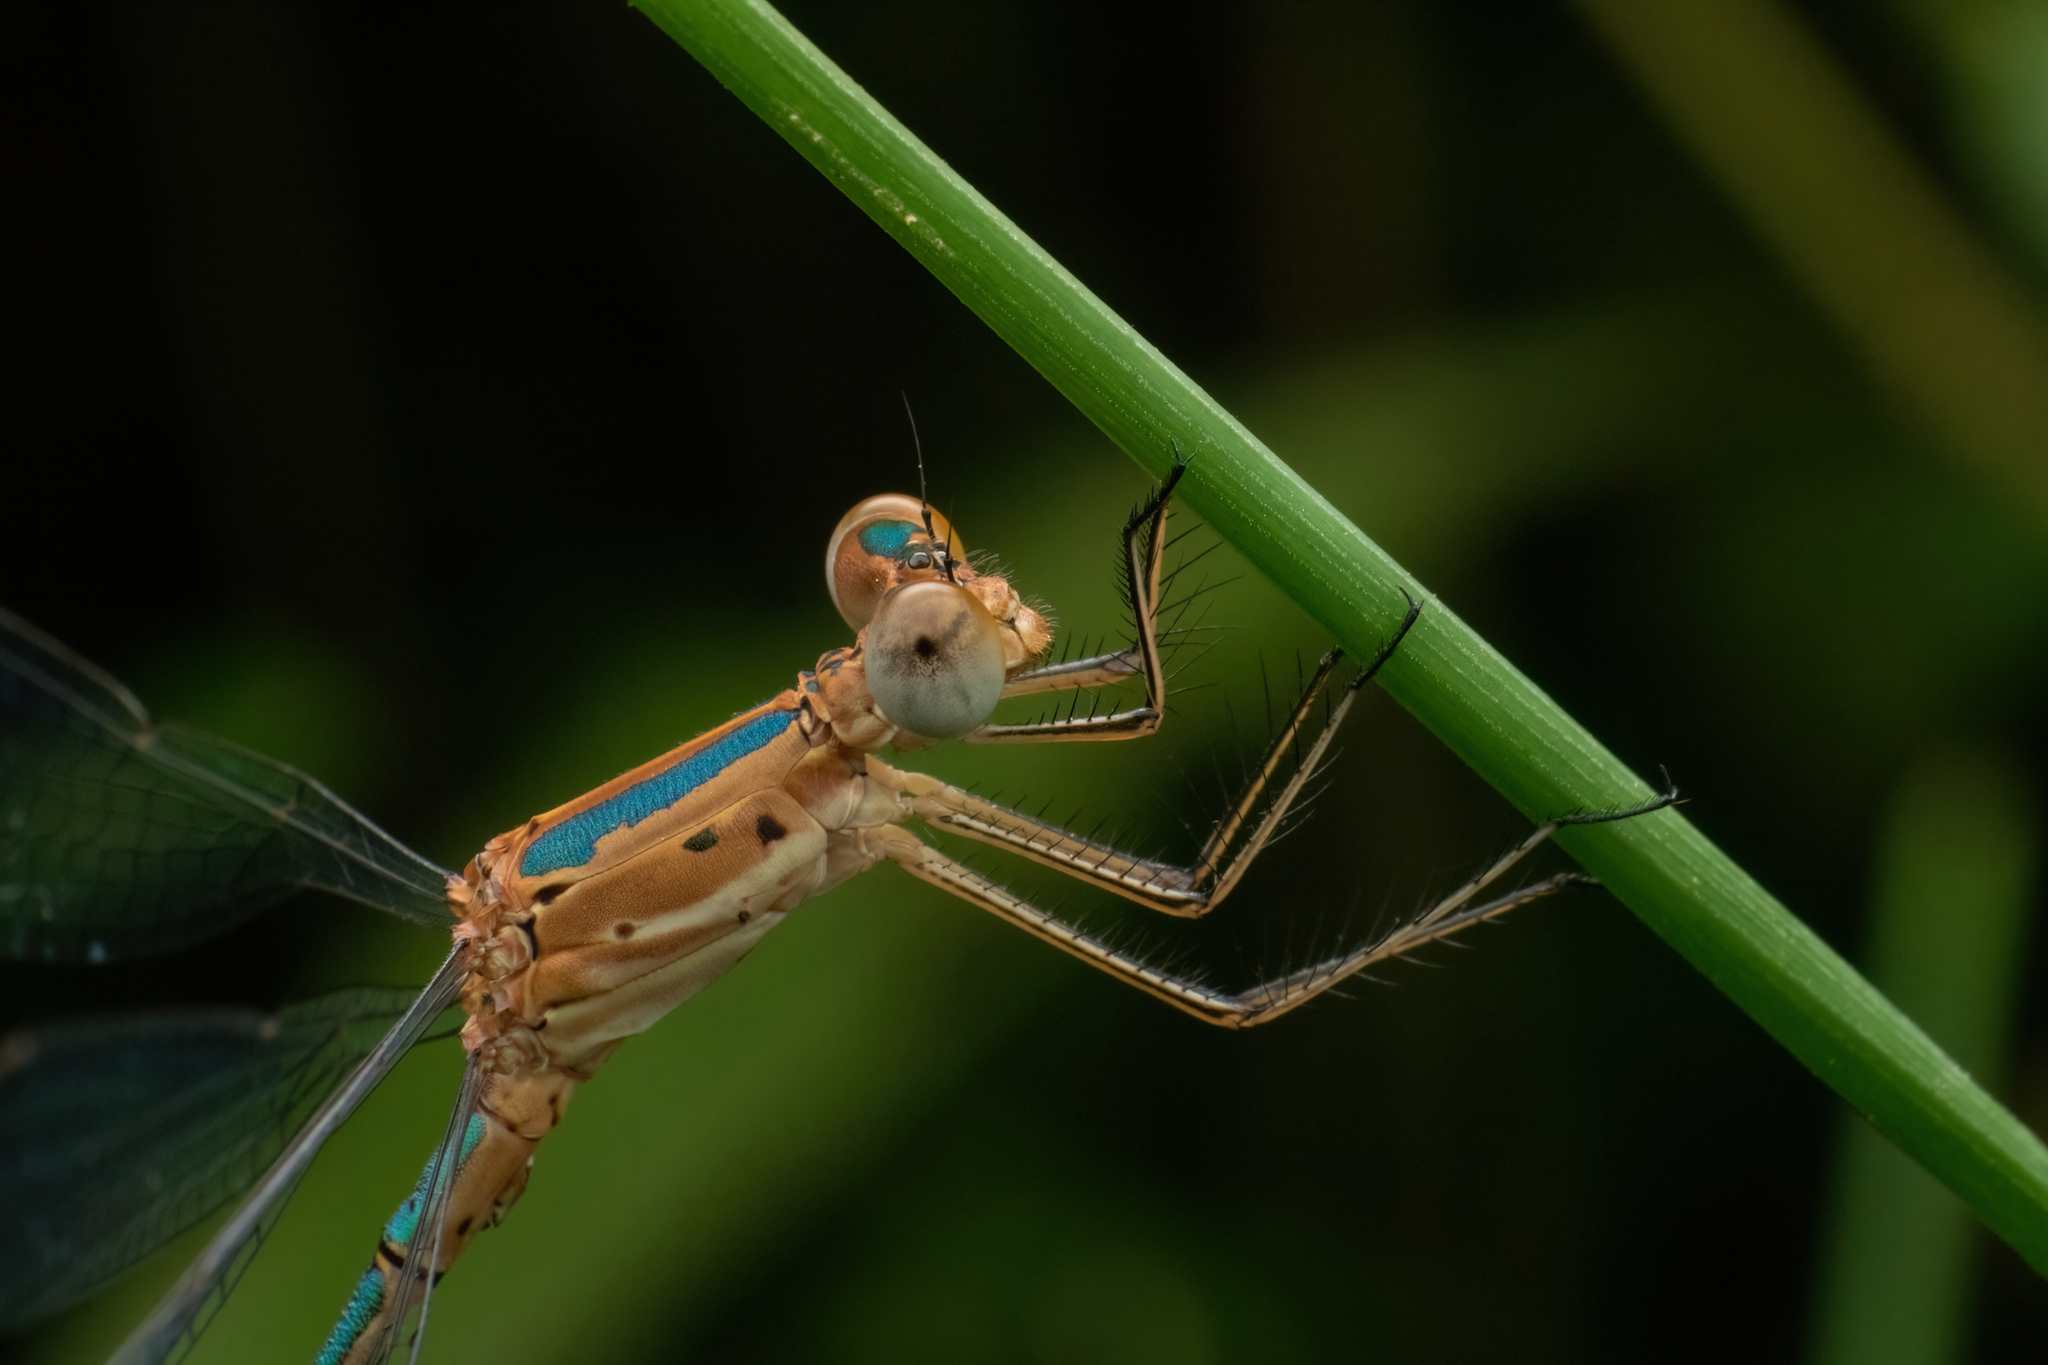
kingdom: Animalia
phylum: Arthropoda
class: Insecta
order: Odonata
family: Lestidae
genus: Lestes
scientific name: Lestes elatus
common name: Emerald spreadwing
